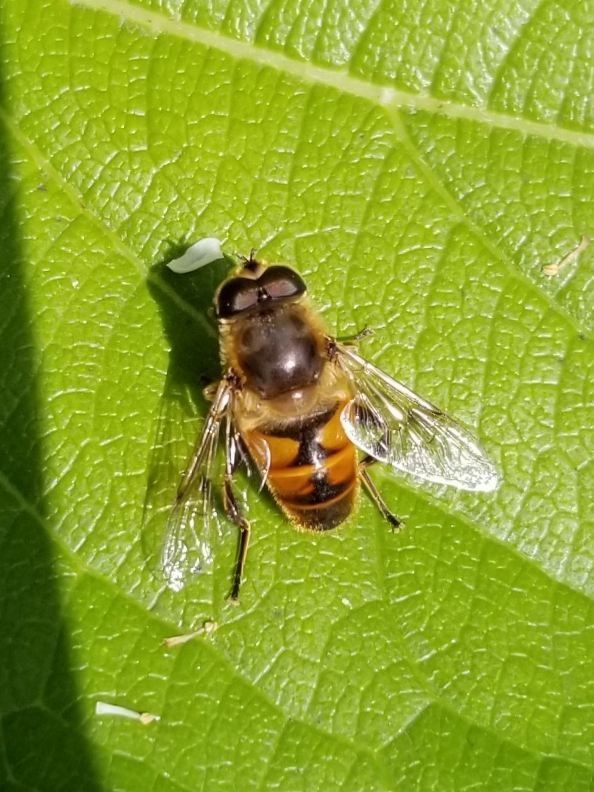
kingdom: Animalia
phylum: Arthropoda
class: Insecta
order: Diptera
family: Syrphidae
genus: Eristalis
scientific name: Eristalis tenax
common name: Drone fly
